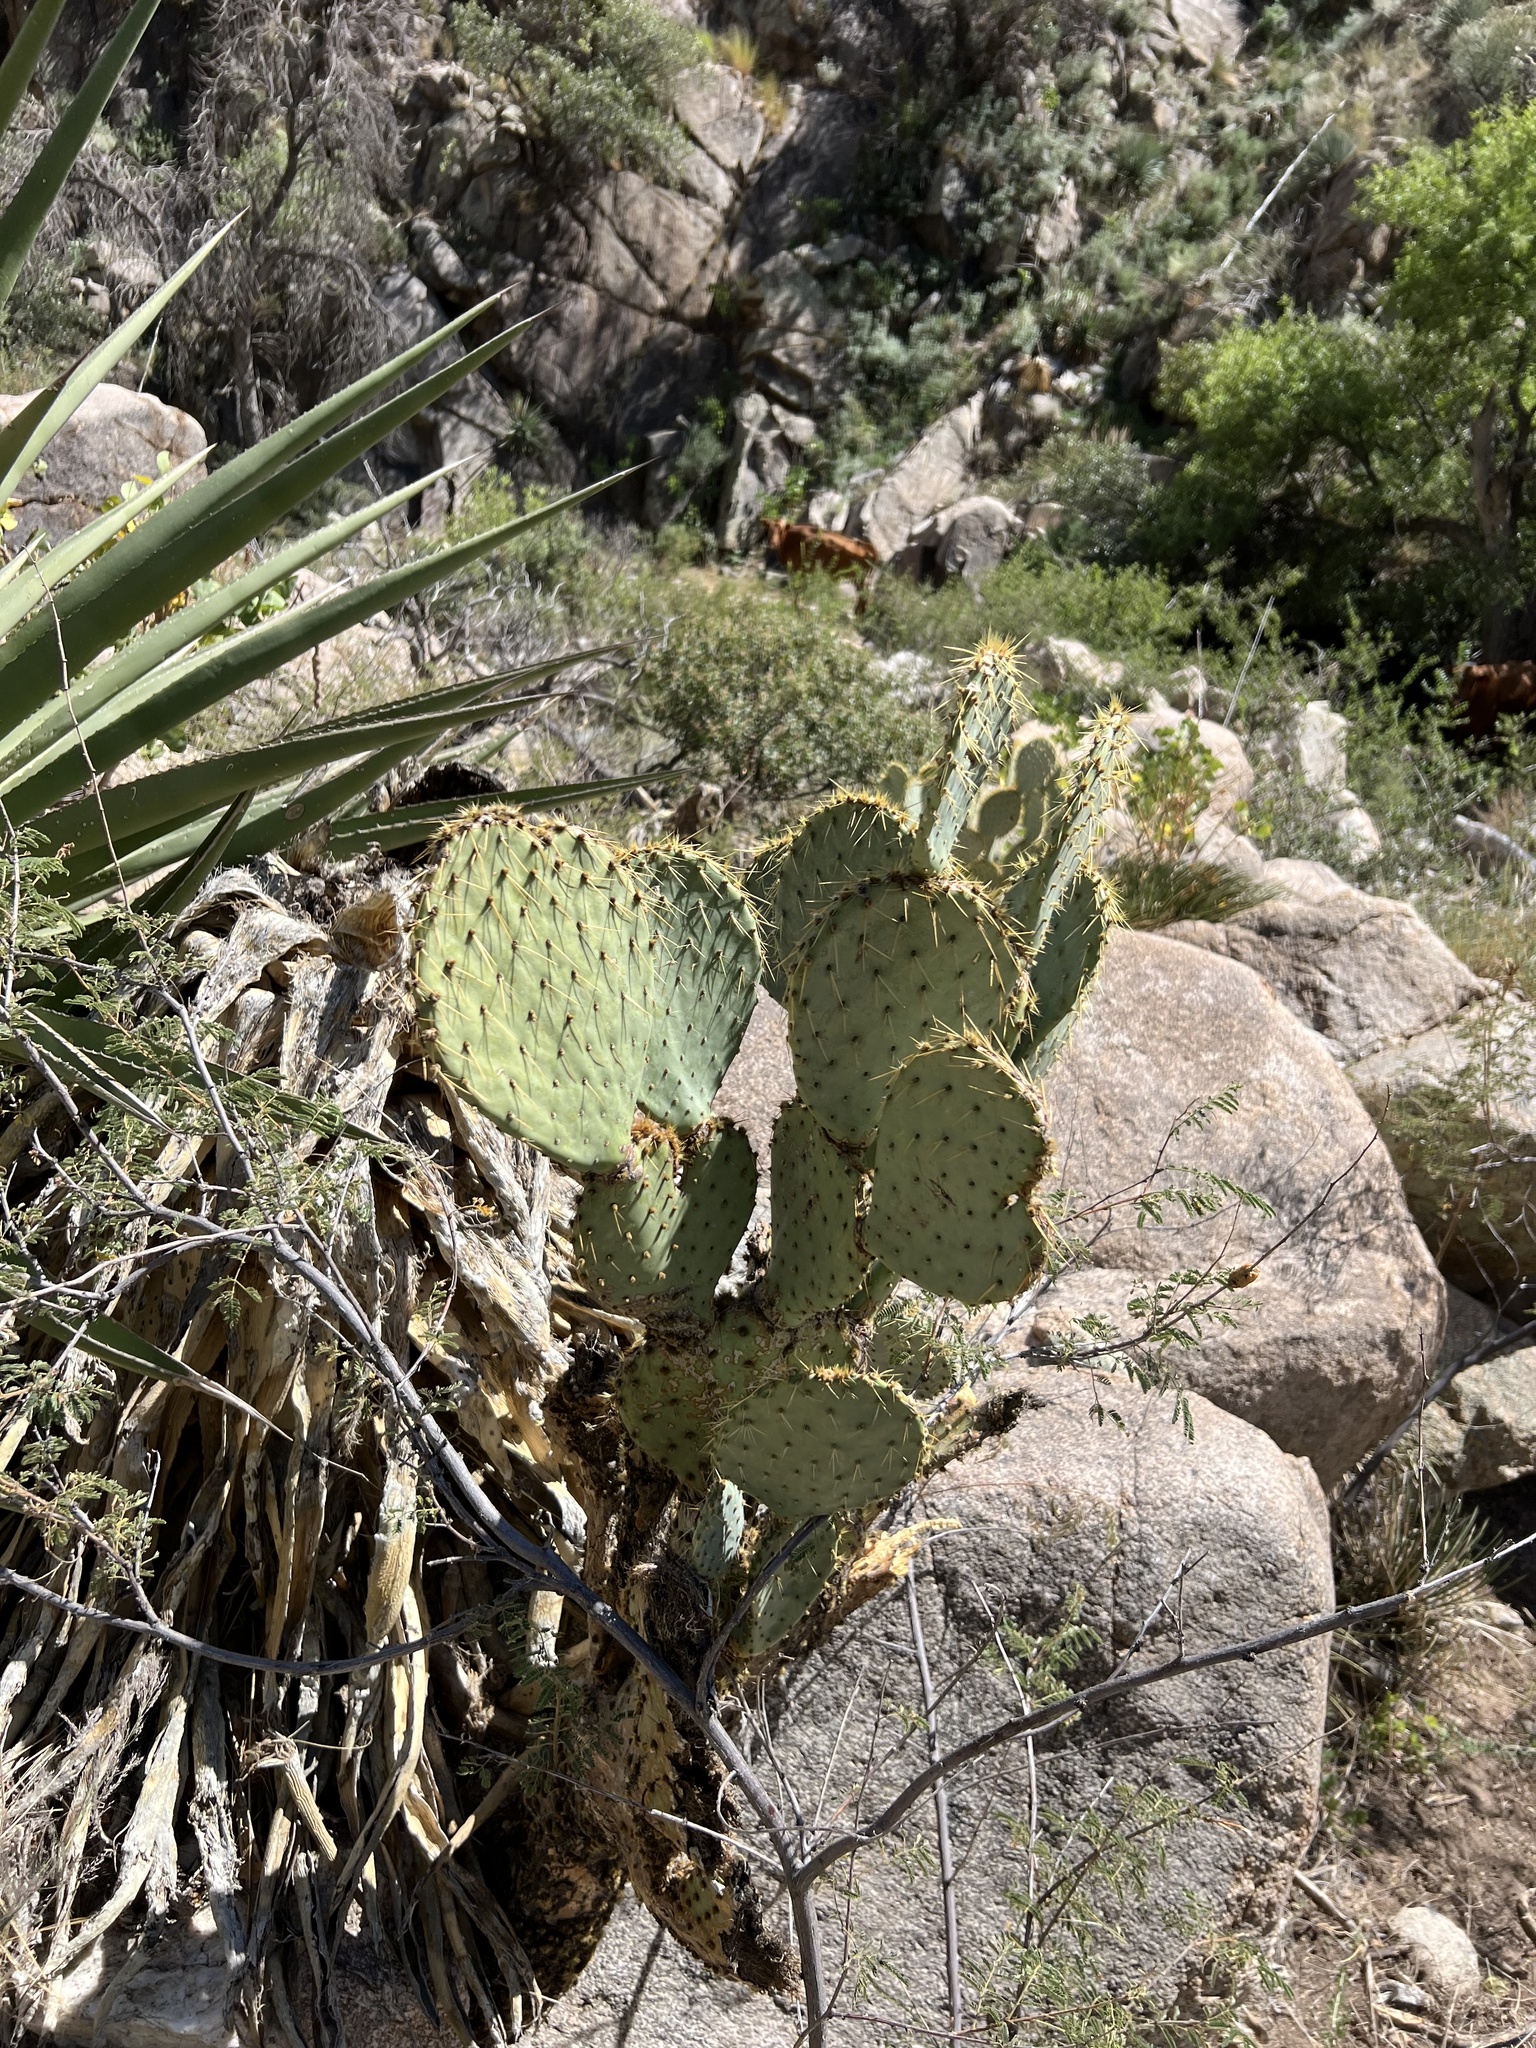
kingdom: Plantae
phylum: Tracheophyta
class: Magnoliopsida
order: Caryophyllales
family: Cactaceae
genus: Opuntia
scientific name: Opuntia chlorotica
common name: Dollar-joint prickly-pear
